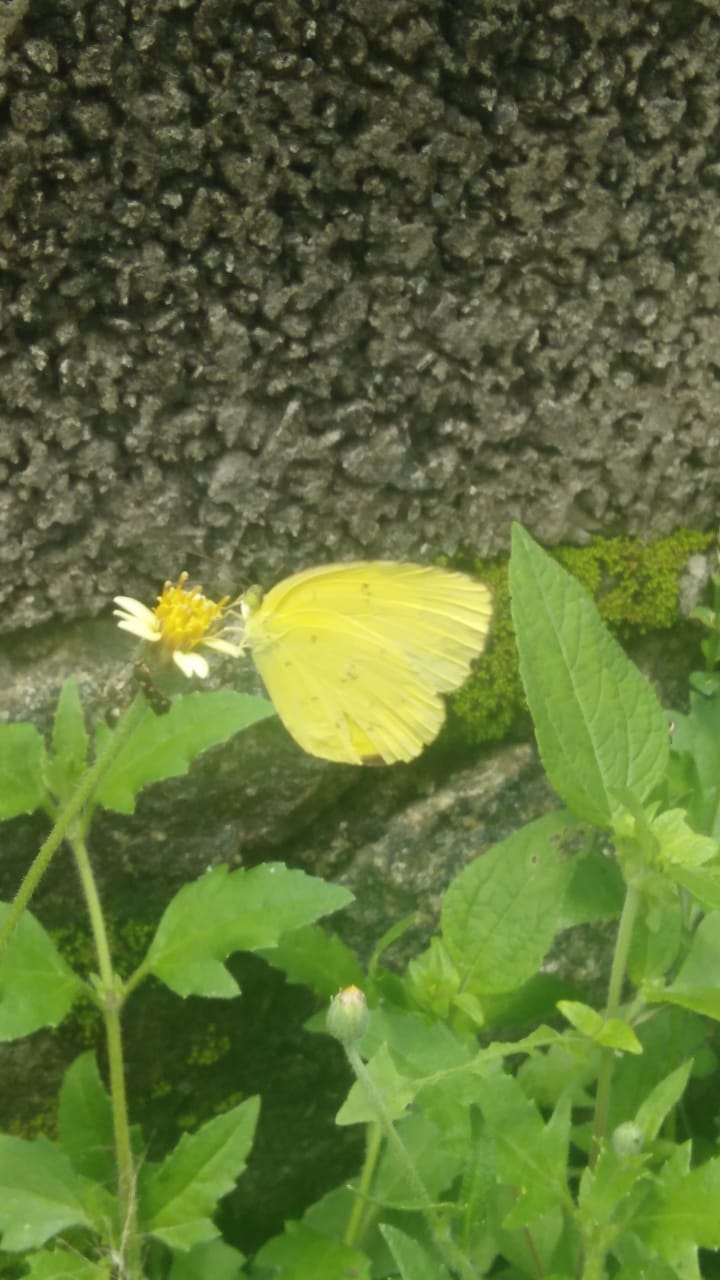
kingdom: Animalia
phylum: Arthropoda
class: Insecta
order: Lepidoptera
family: Pieridae
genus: Eurema
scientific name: Eurema hecabe
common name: Pale grass yellow
